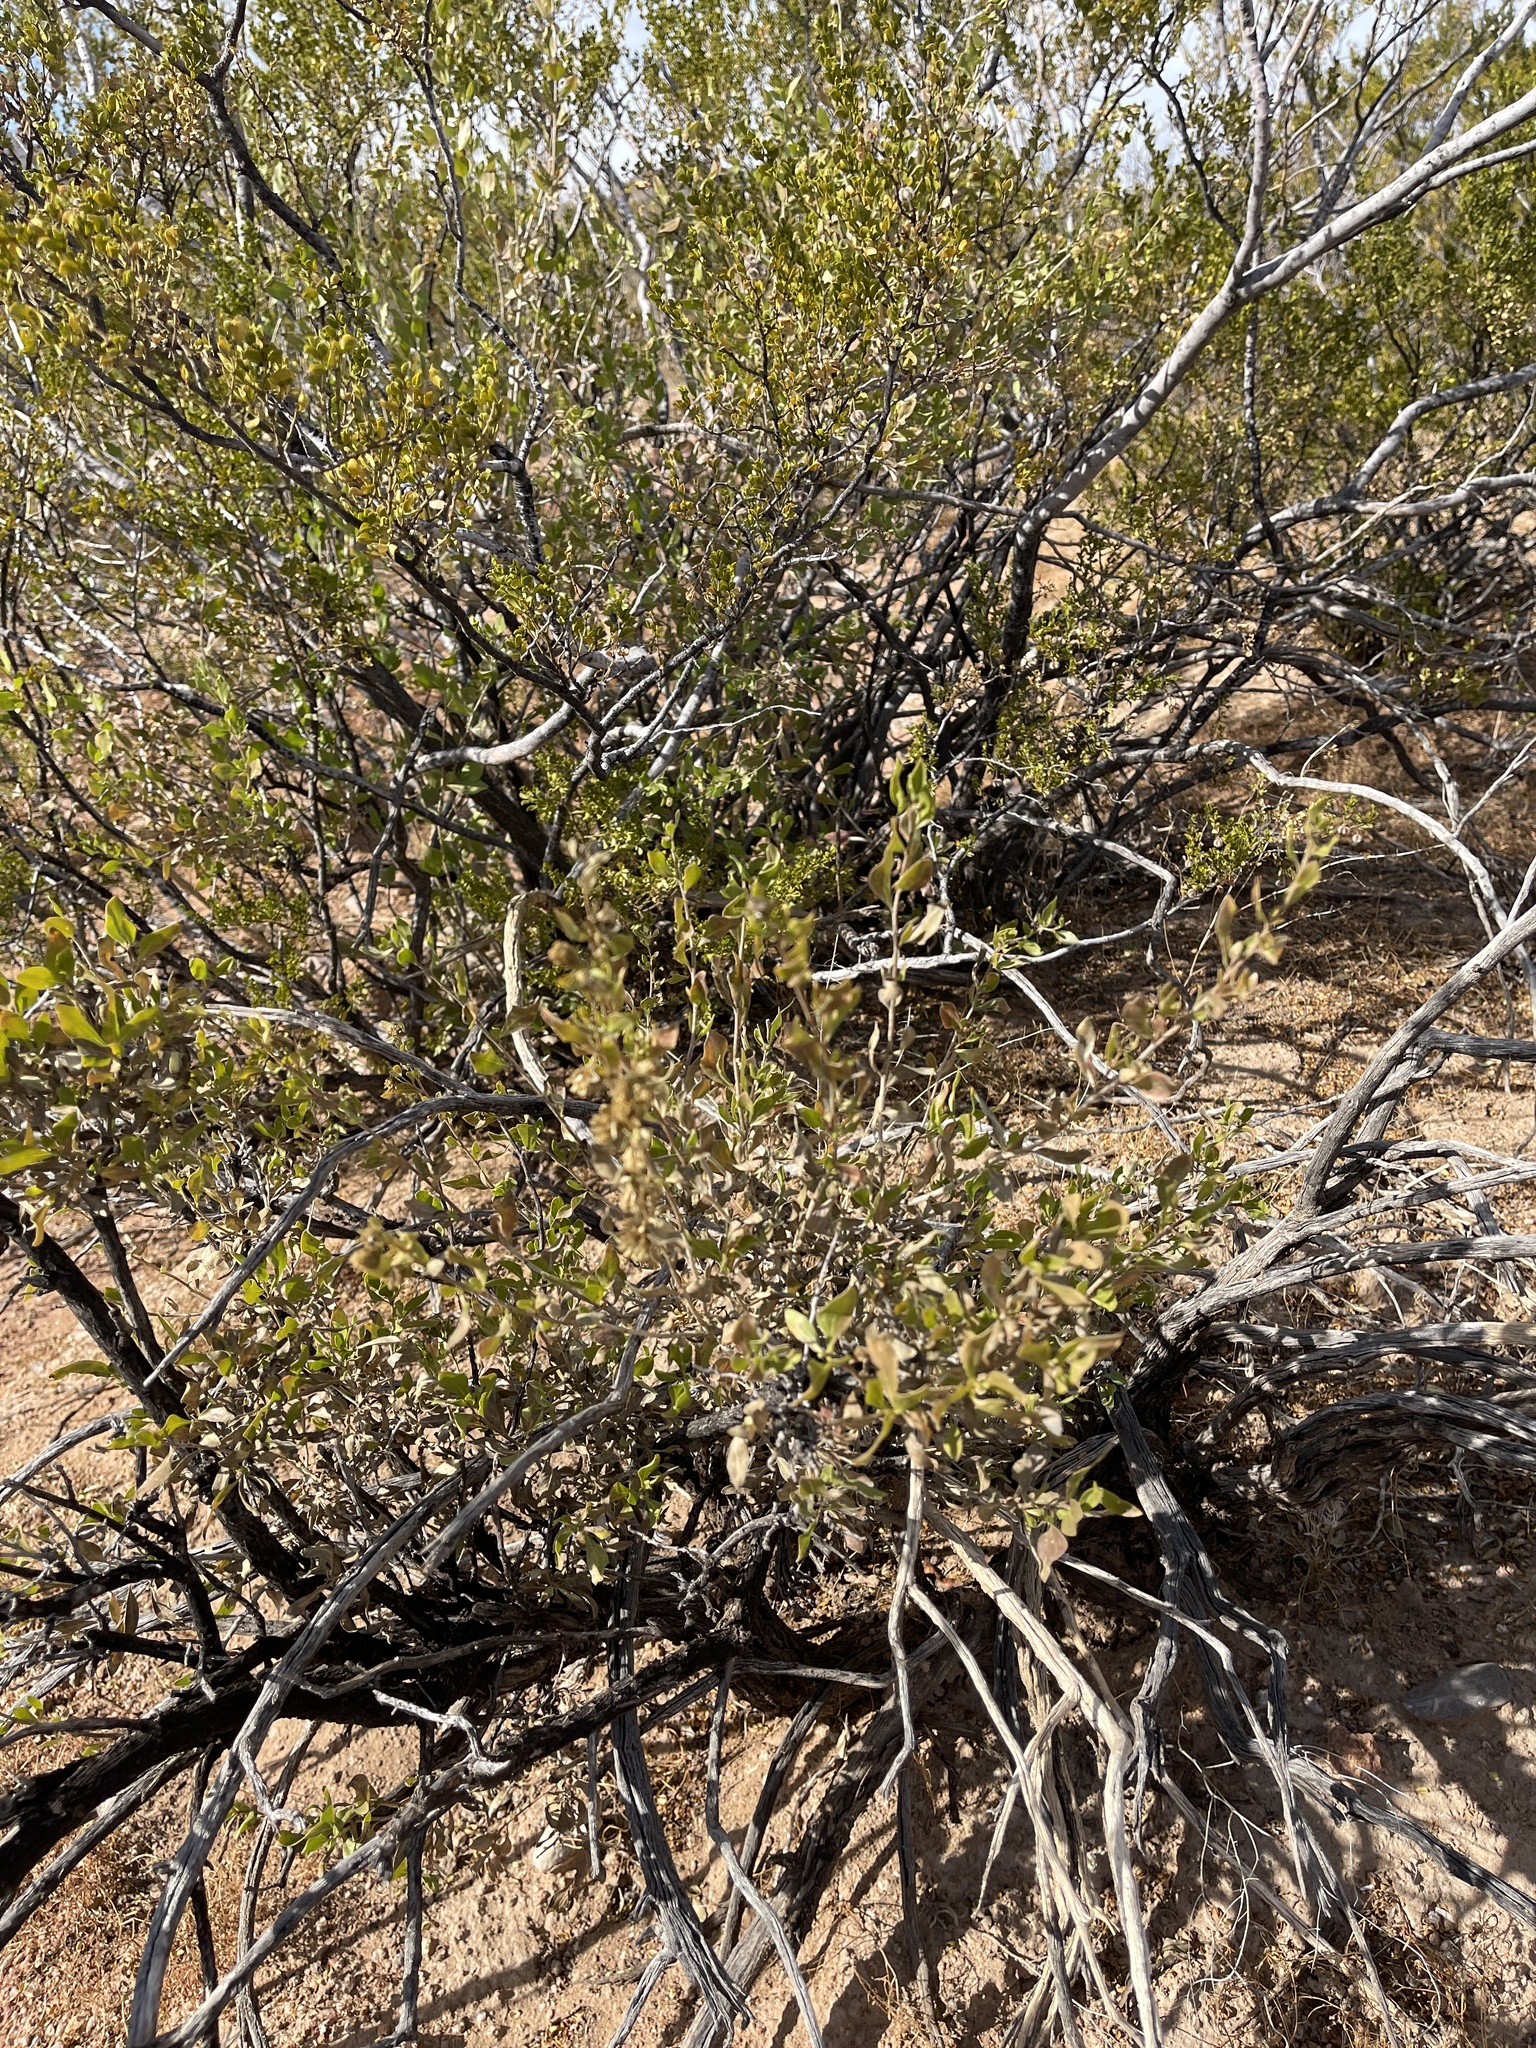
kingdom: Plantae
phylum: Tracheophyta
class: Magnoliopsida
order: Asterales
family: Asteraceae
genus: Flourensia
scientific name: Flourensia cernua
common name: Varnishbush
